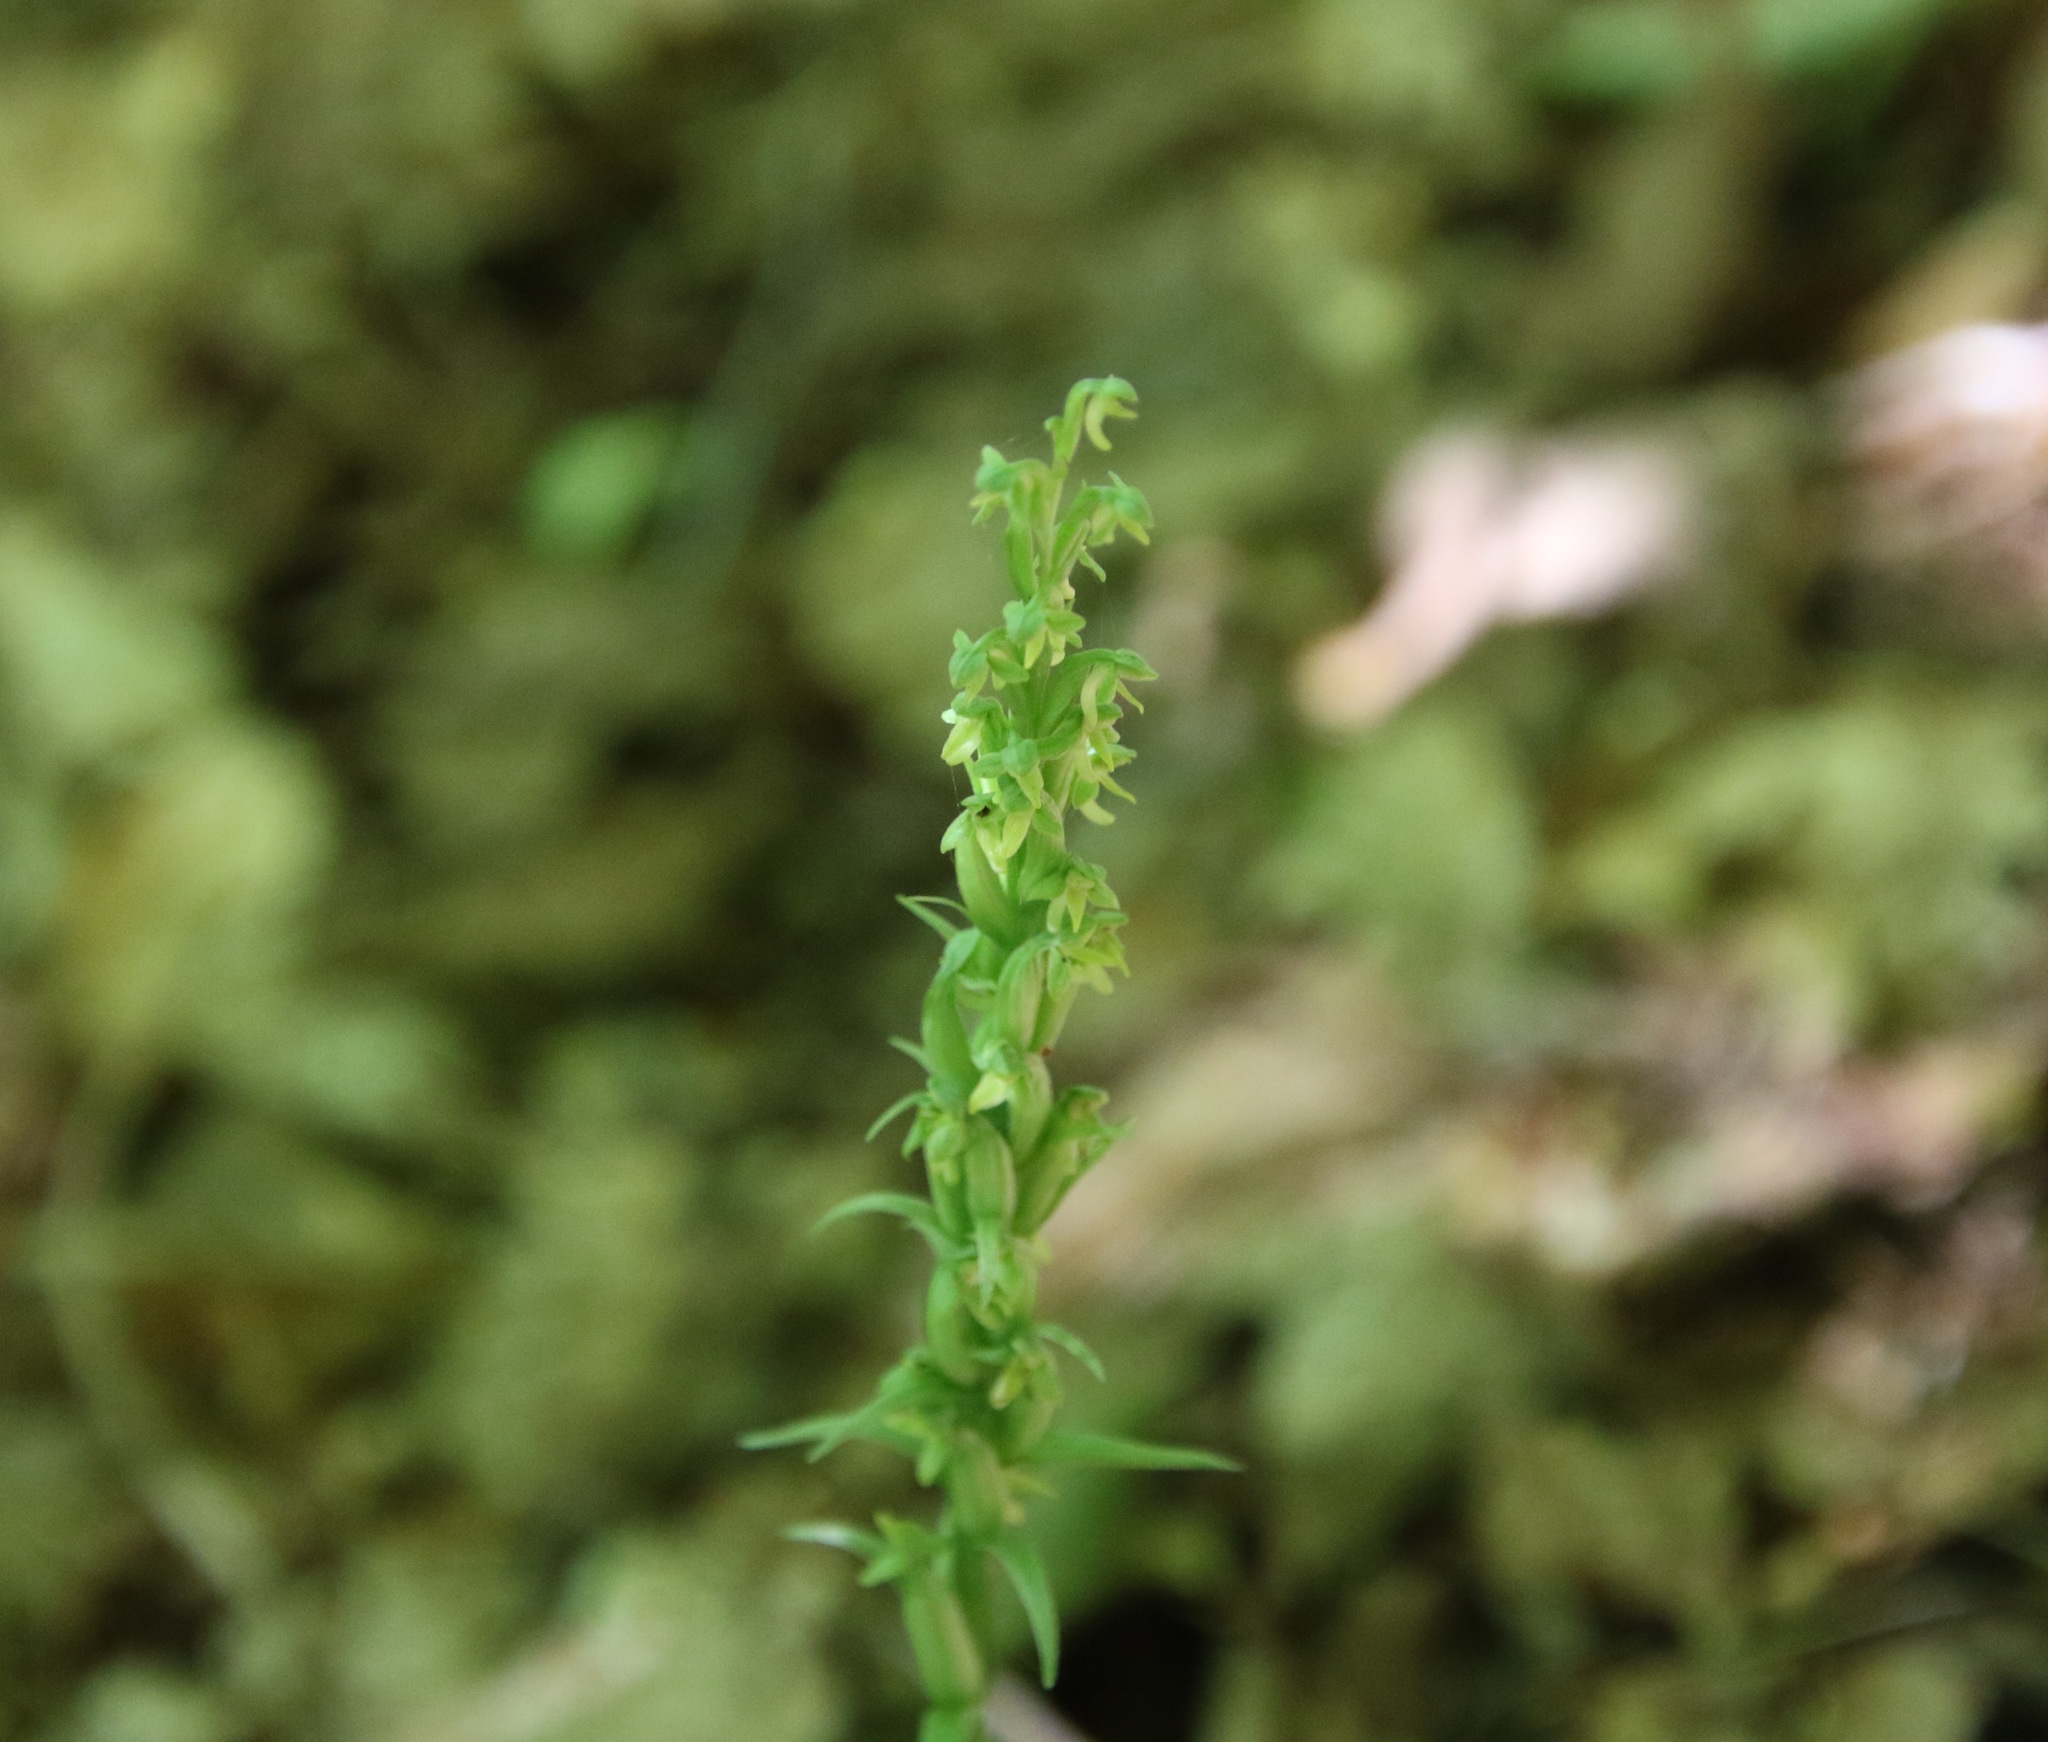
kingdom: Plantae
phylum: Tracheophyta
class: Liliopsida
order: Asparagales
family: Orchidaceae
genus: Platanthera
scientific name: Platanthera aquilonis
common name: Northern green orchid
